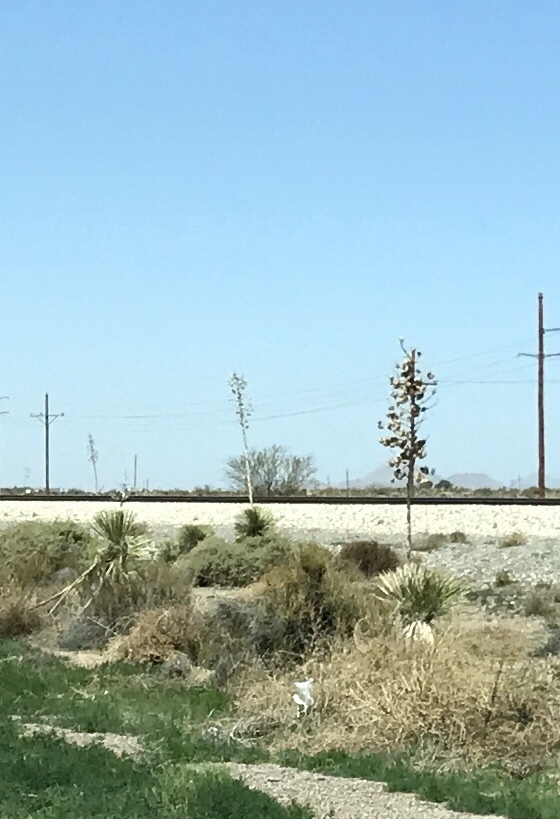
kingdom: Plantae
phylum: Tracheophyta
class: Liliopsida
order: Asparagales
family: Asparagaceae
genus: Yucca
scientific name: Yucca elata
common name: Palmella
